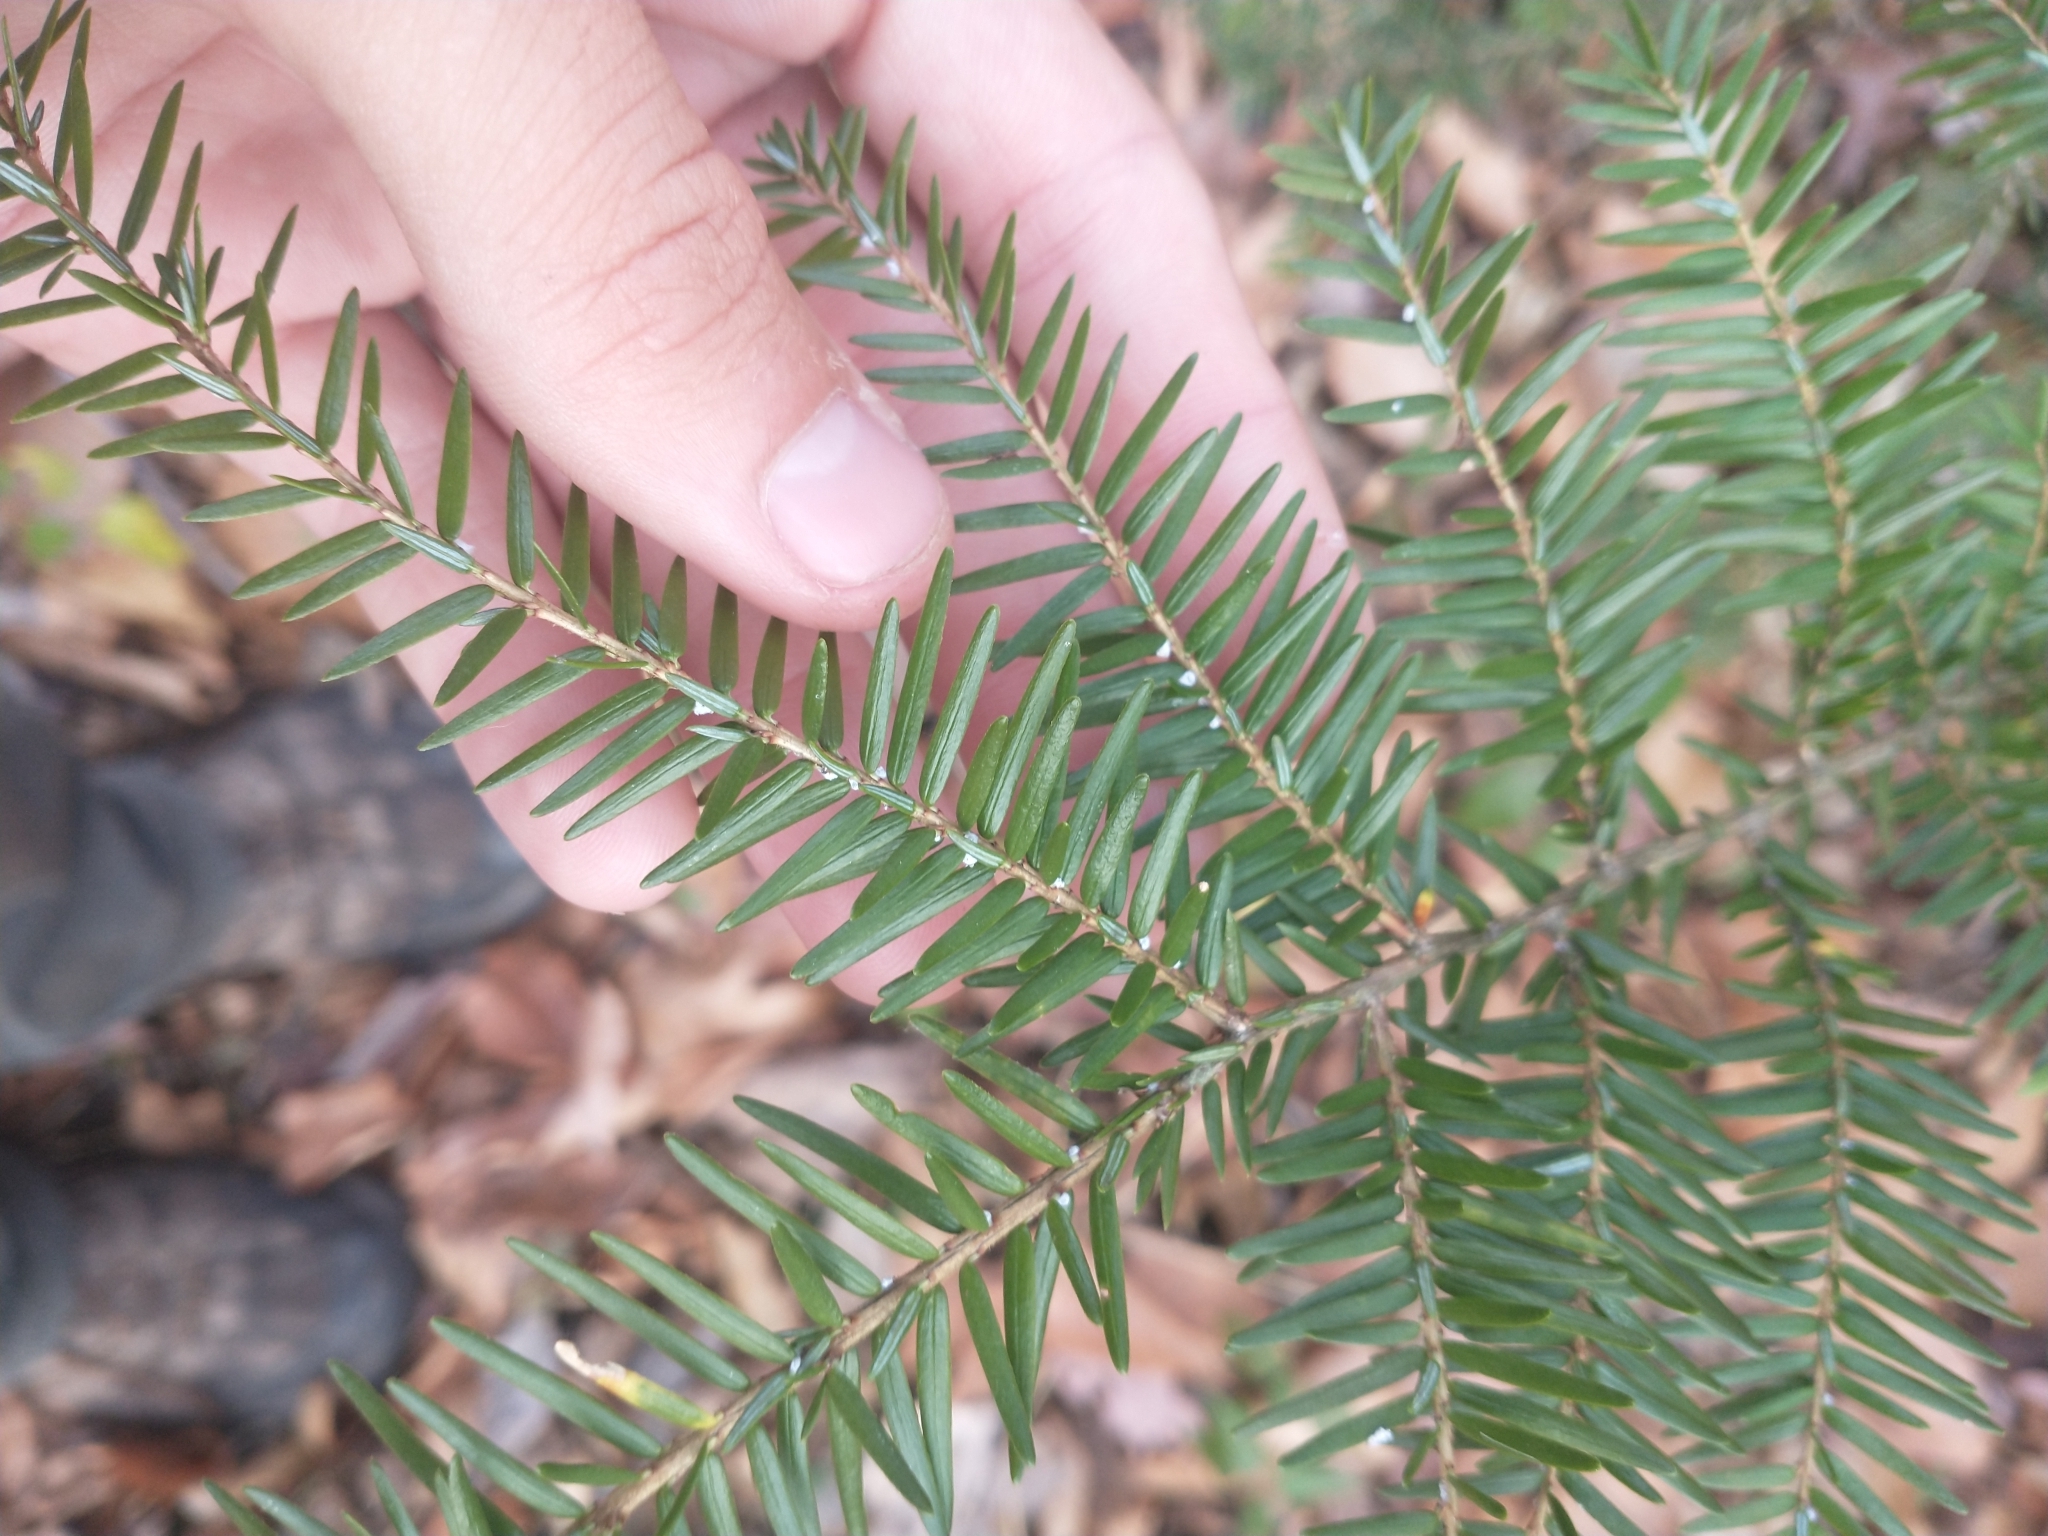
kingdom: Plantae
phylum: Tracheophyta
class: Pinopsida
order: Pinales
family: Pinaceae
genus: Tsuga
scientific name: Tsuga canadensis
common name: Eastern hemlock
